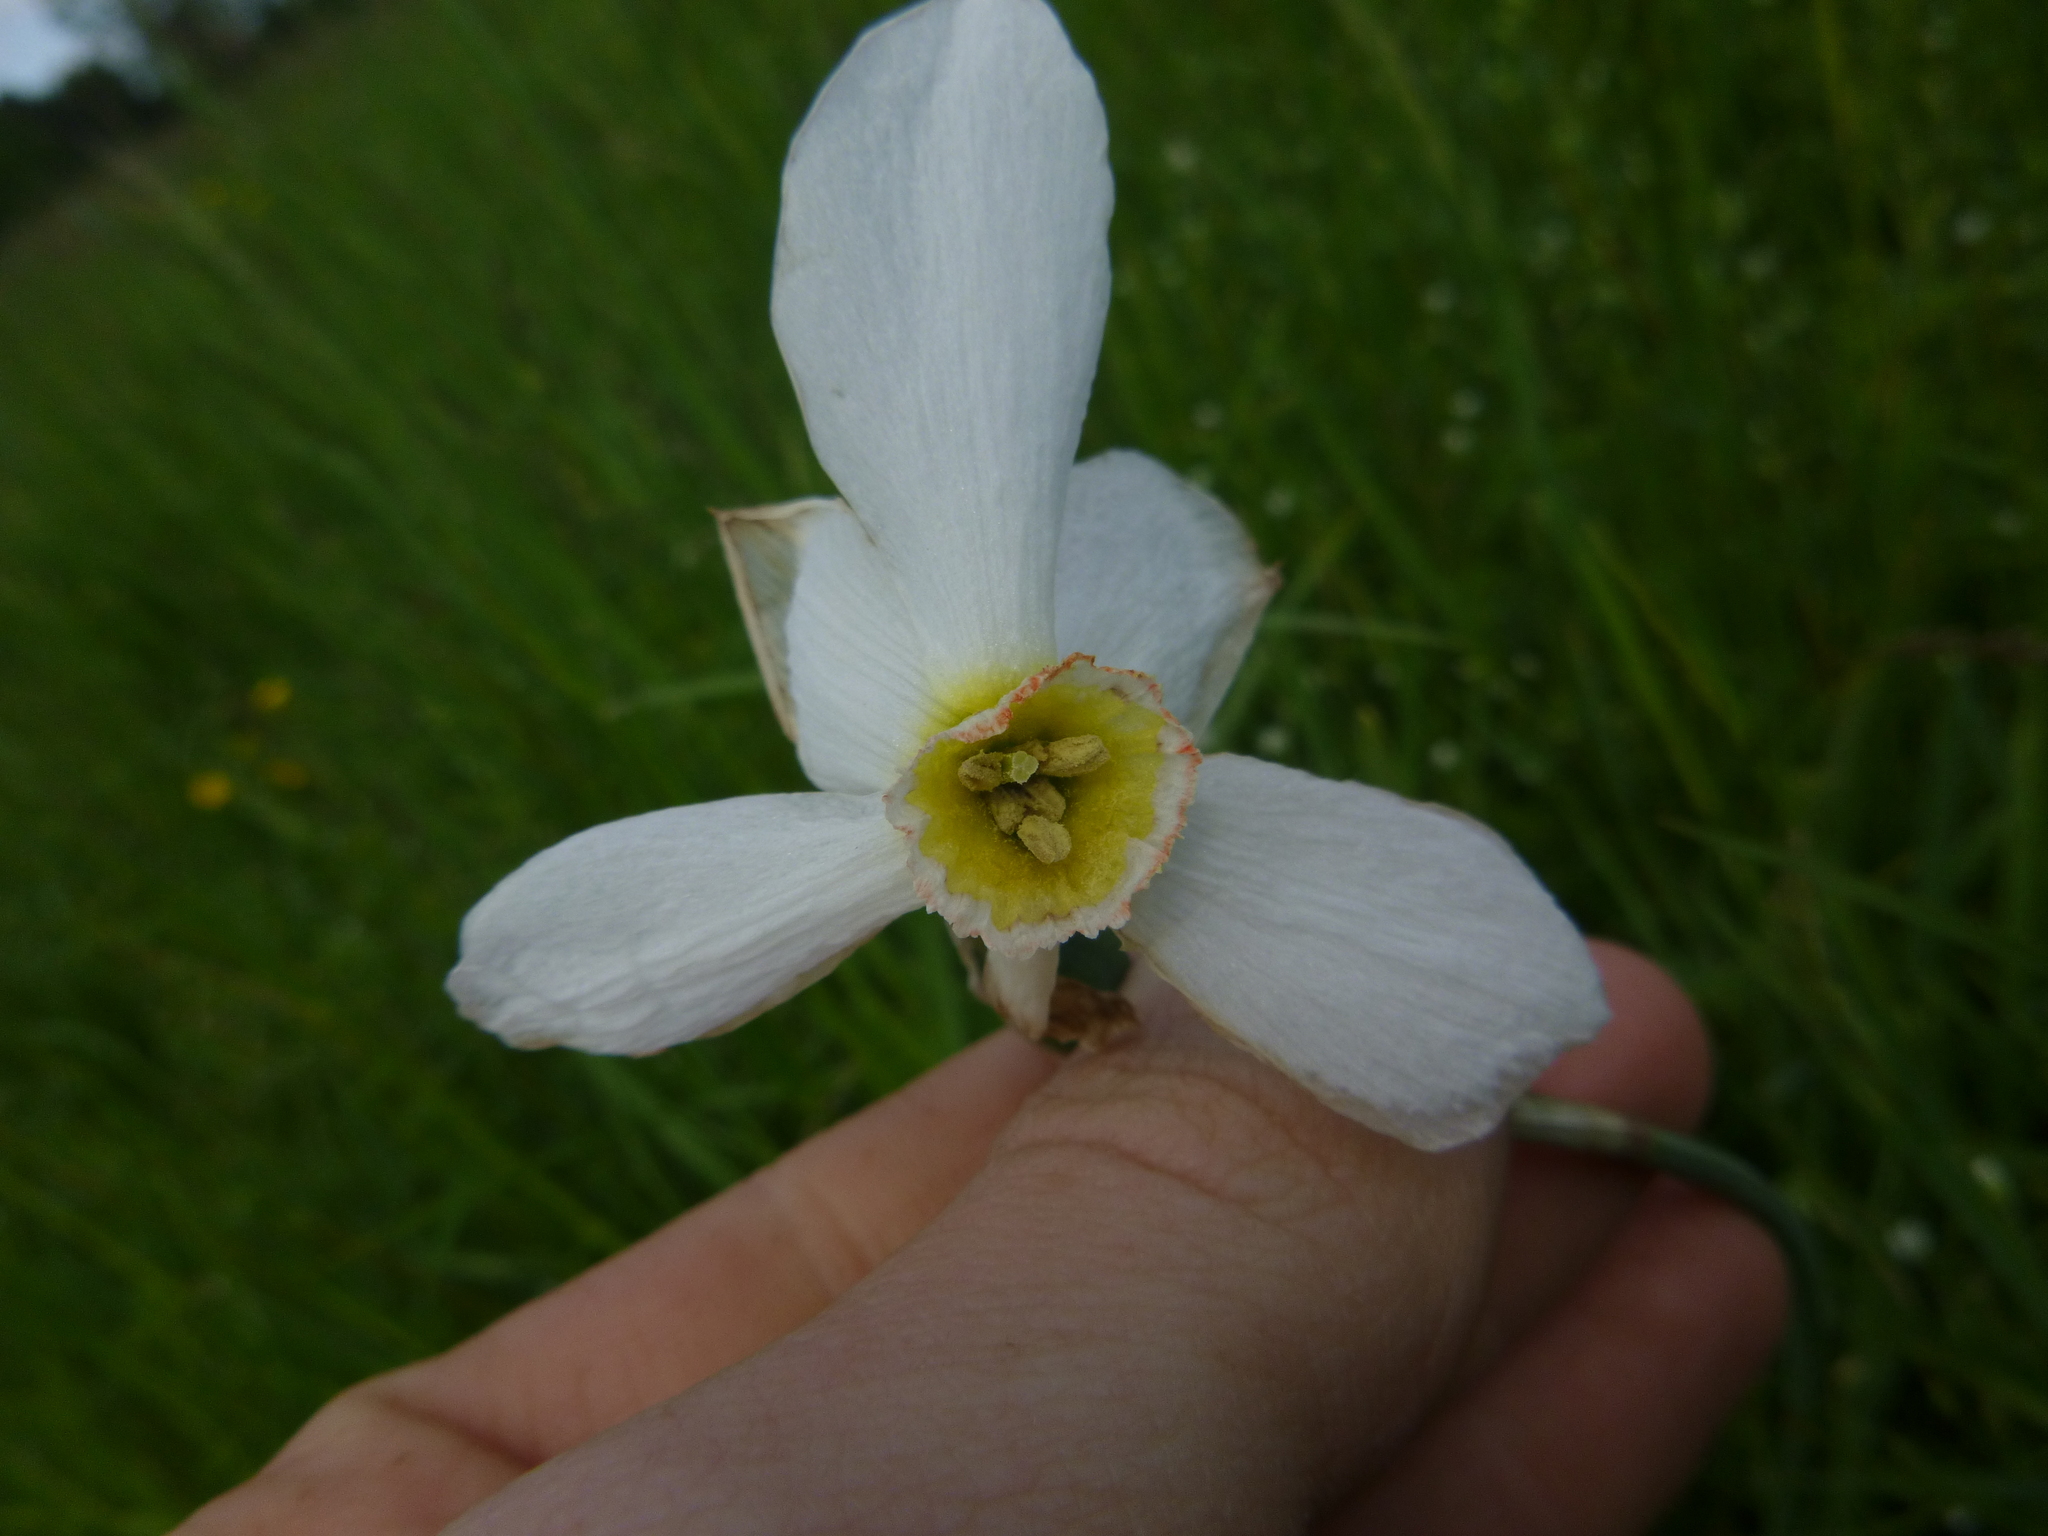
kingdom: Plantae
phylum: Tracheophyta
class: Liliopsida
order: Asparagales
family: Amaryllidaceae
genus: Narcissus
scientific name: Narcissus poeticus
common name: Pheasant's-eye daffodil
